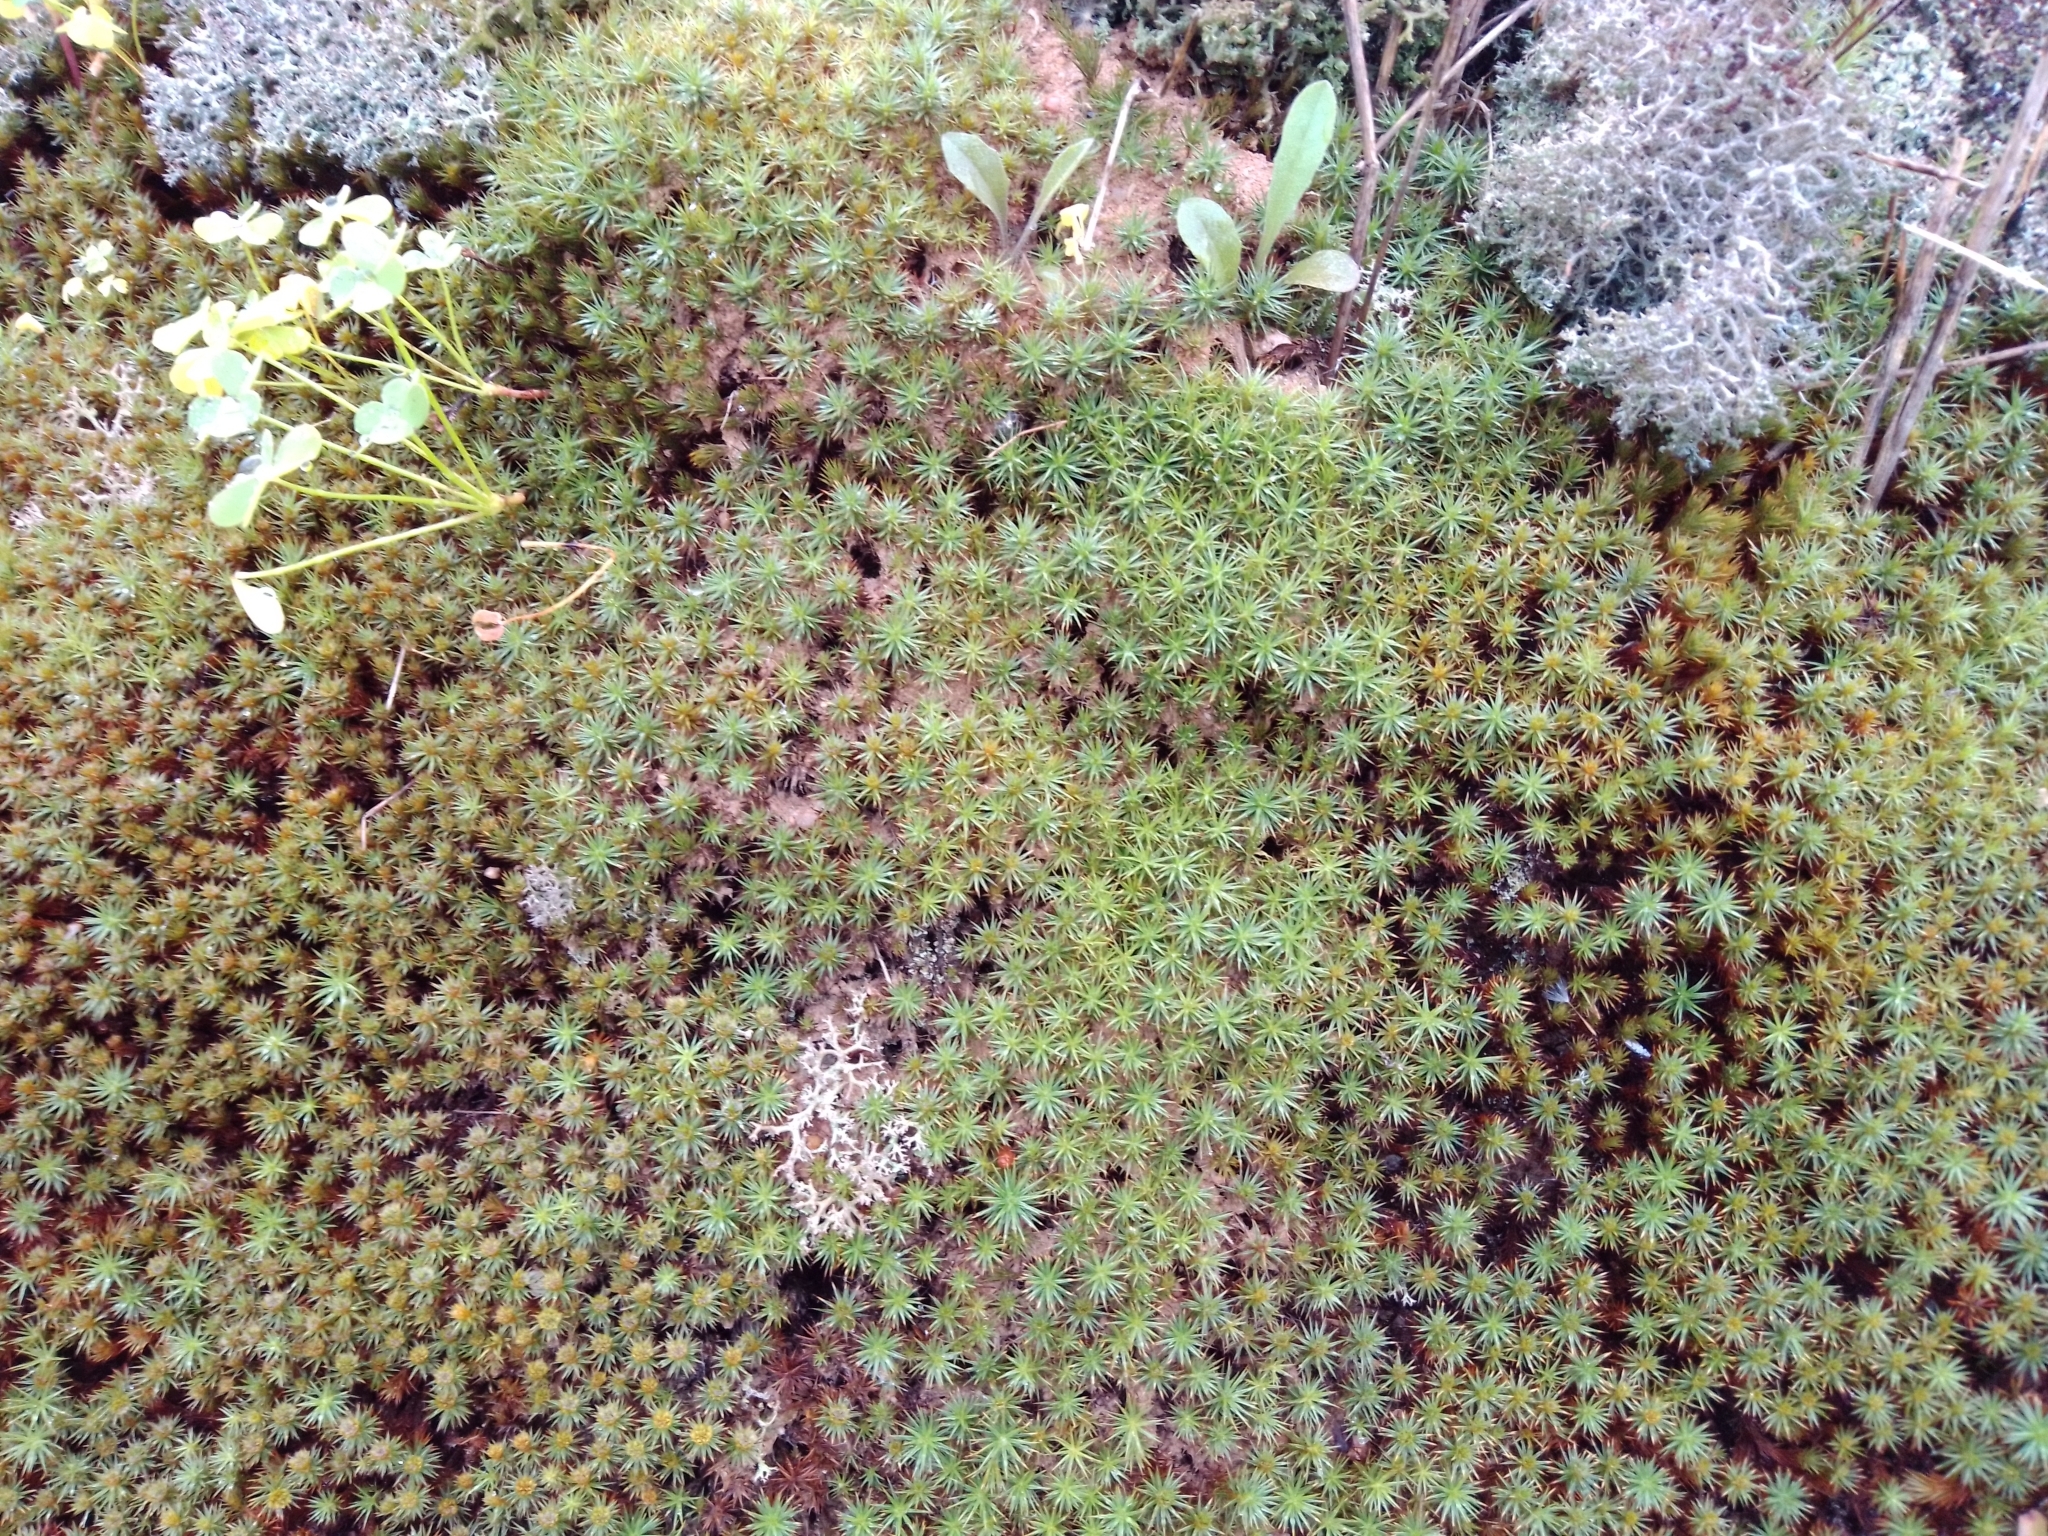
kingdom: Plantae
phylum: Bryophyta
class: Polytrichopsida
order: Polytrichales
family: Polytrichaceae
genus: Polytrichum
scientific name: Polytrichum juniperinum
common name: Juniper haircap moss
